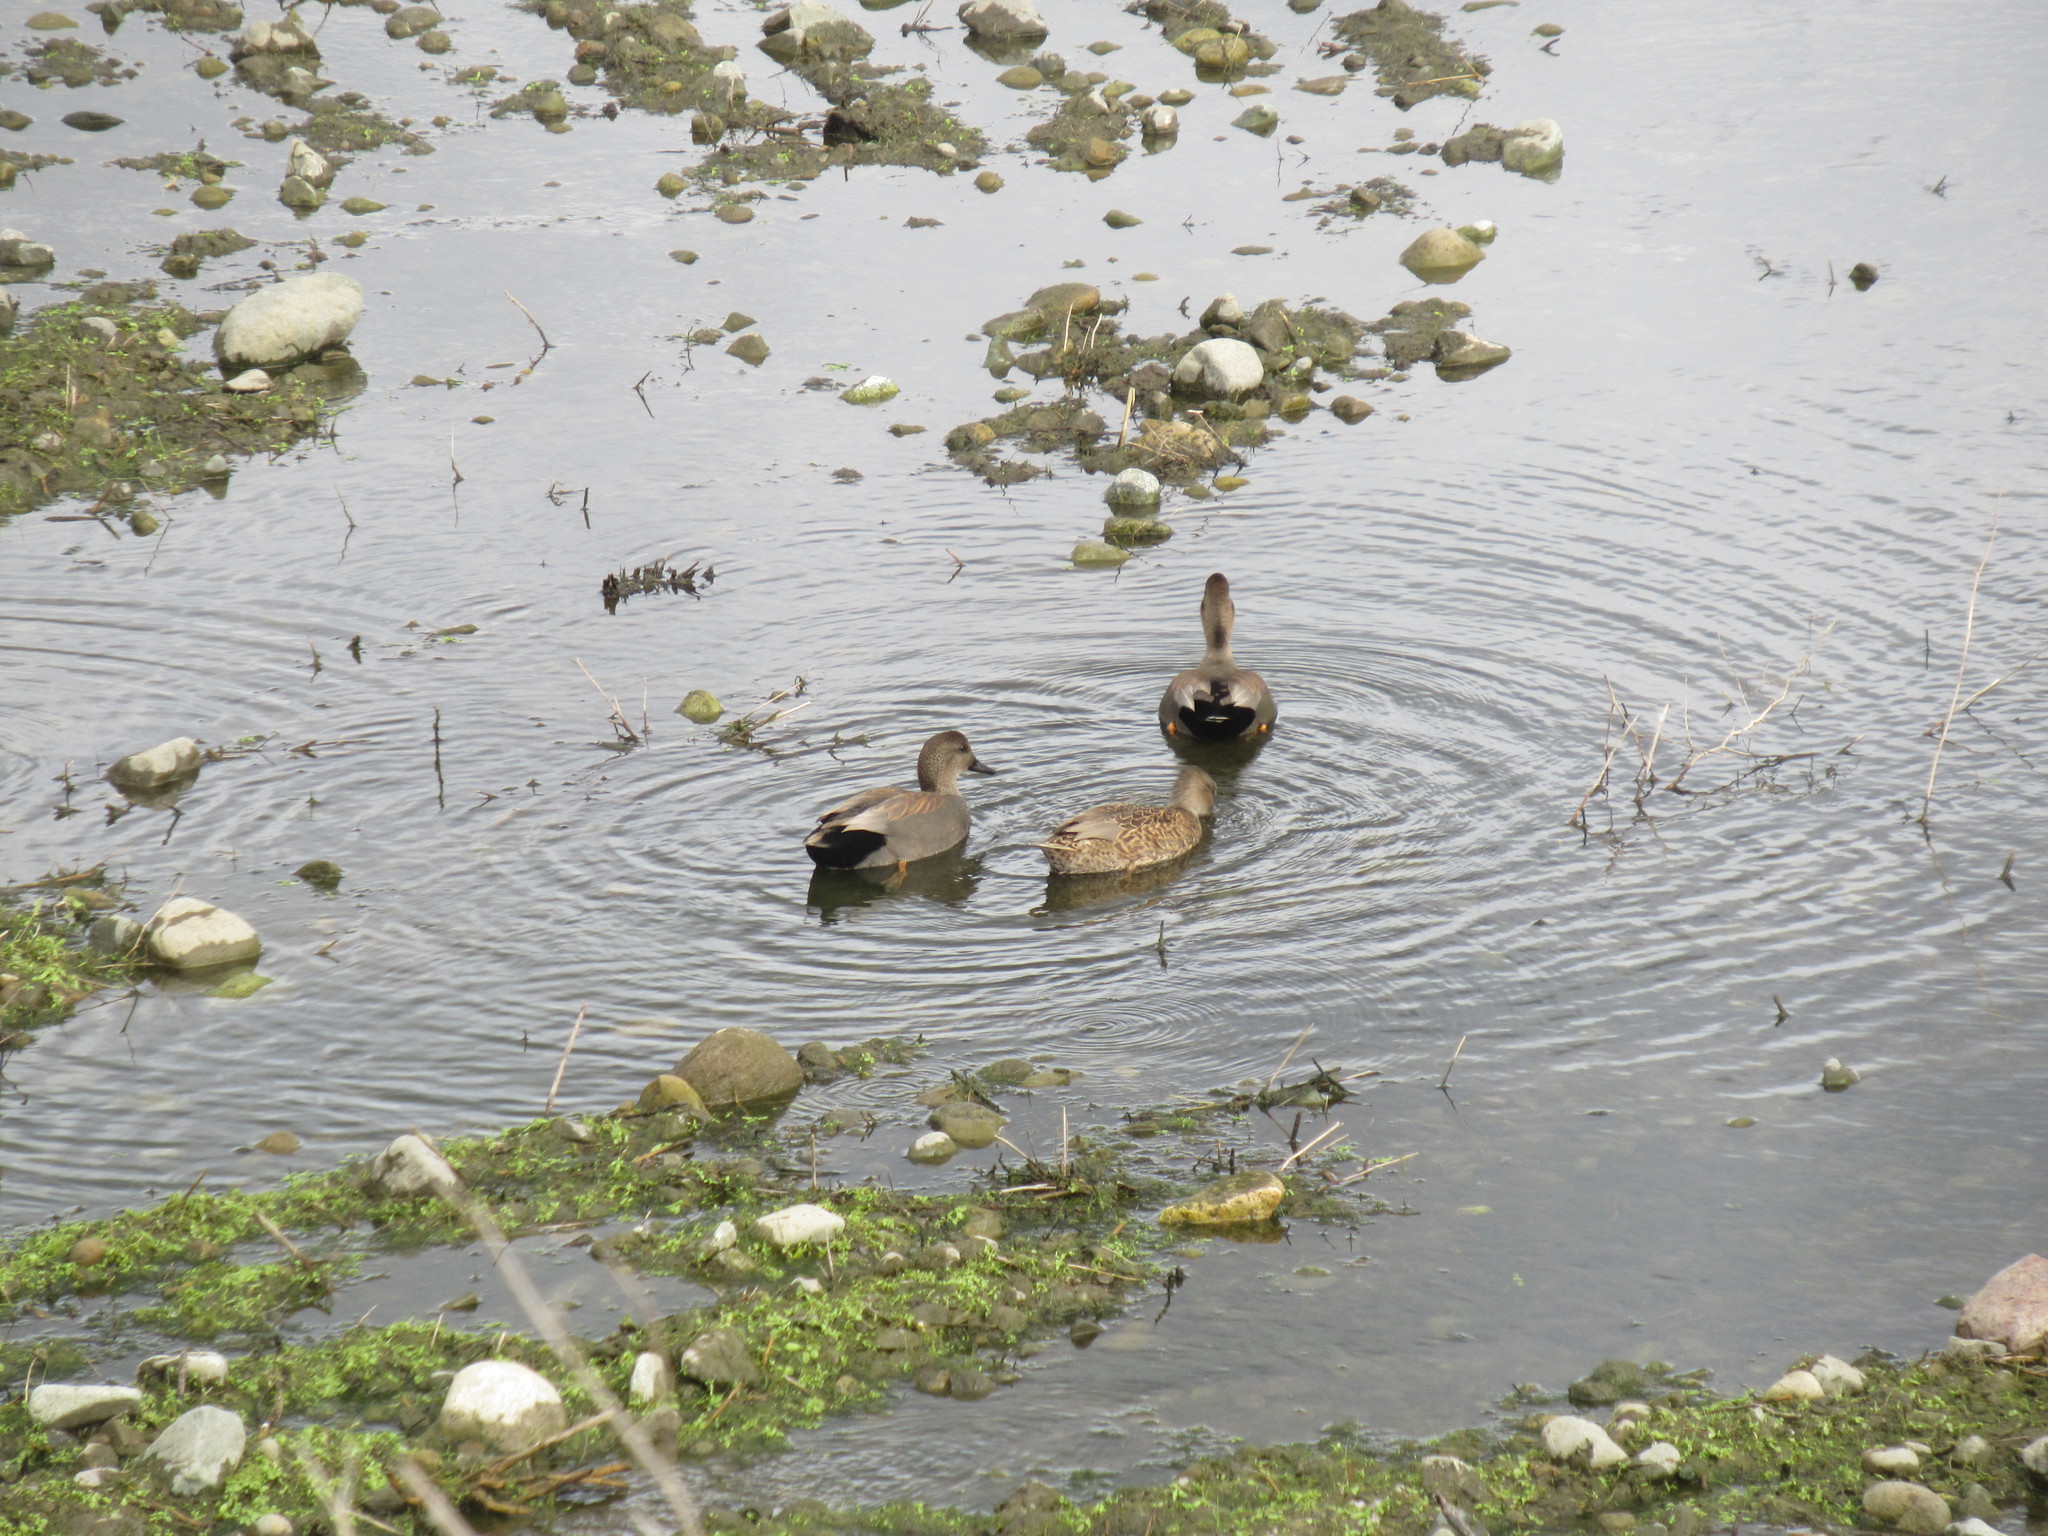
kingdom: Animalia
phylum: Chordata
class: Aves
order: Anseriformes
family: Anatidae
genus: Mareca
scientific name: Mareca strepera
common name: Gadwall
